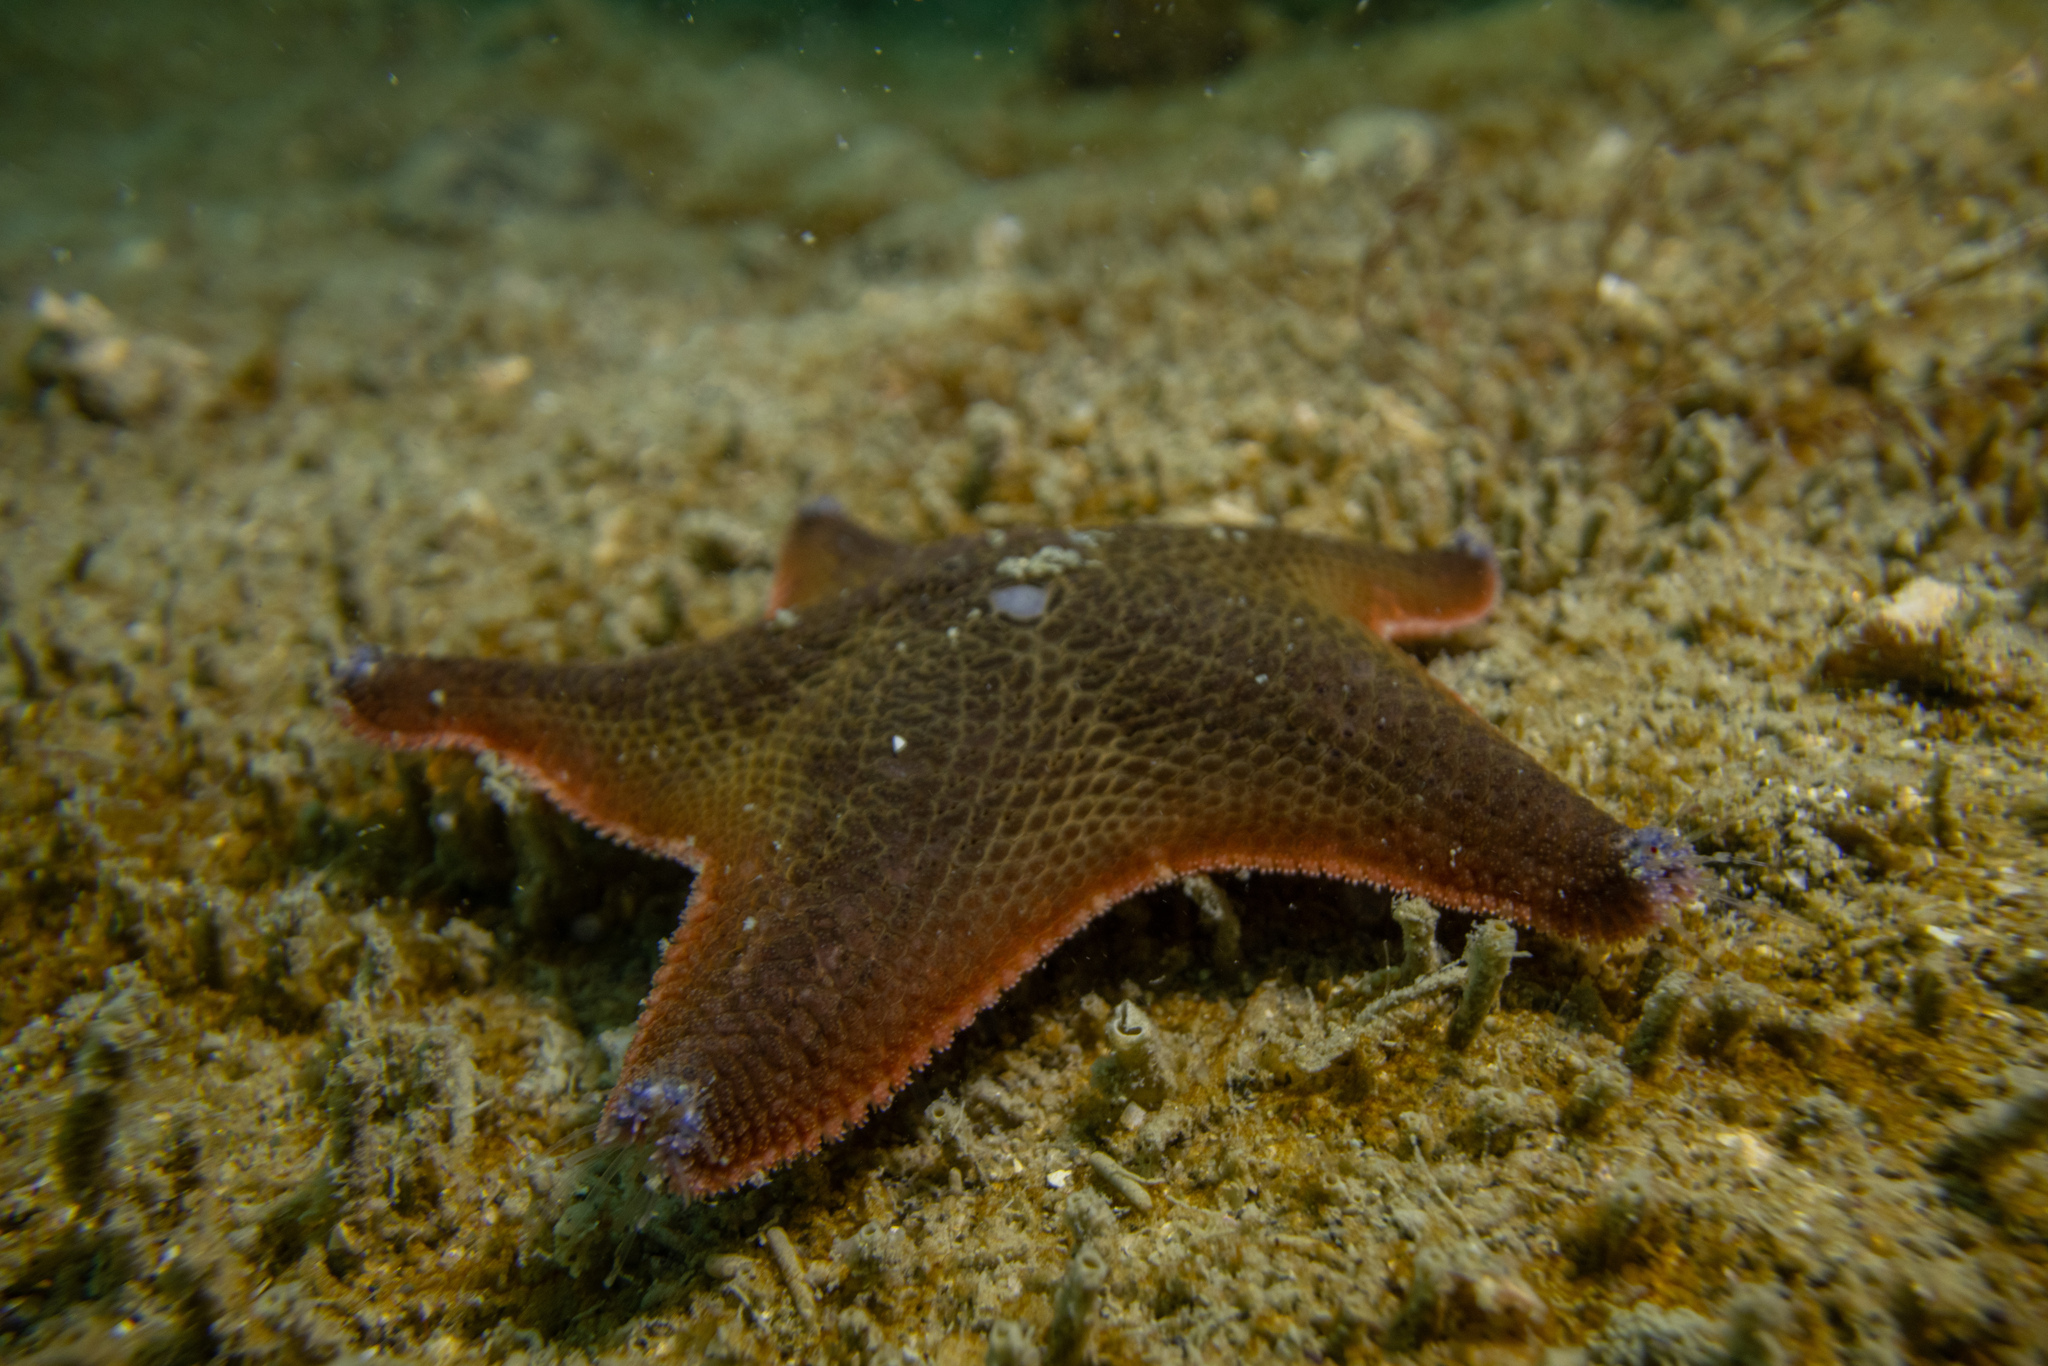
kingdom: Animalia
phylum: Echinodermata
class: Asteroidea
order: Valvatida
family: Asterinidae
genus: Patiriella
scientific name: Patiriella regularis
